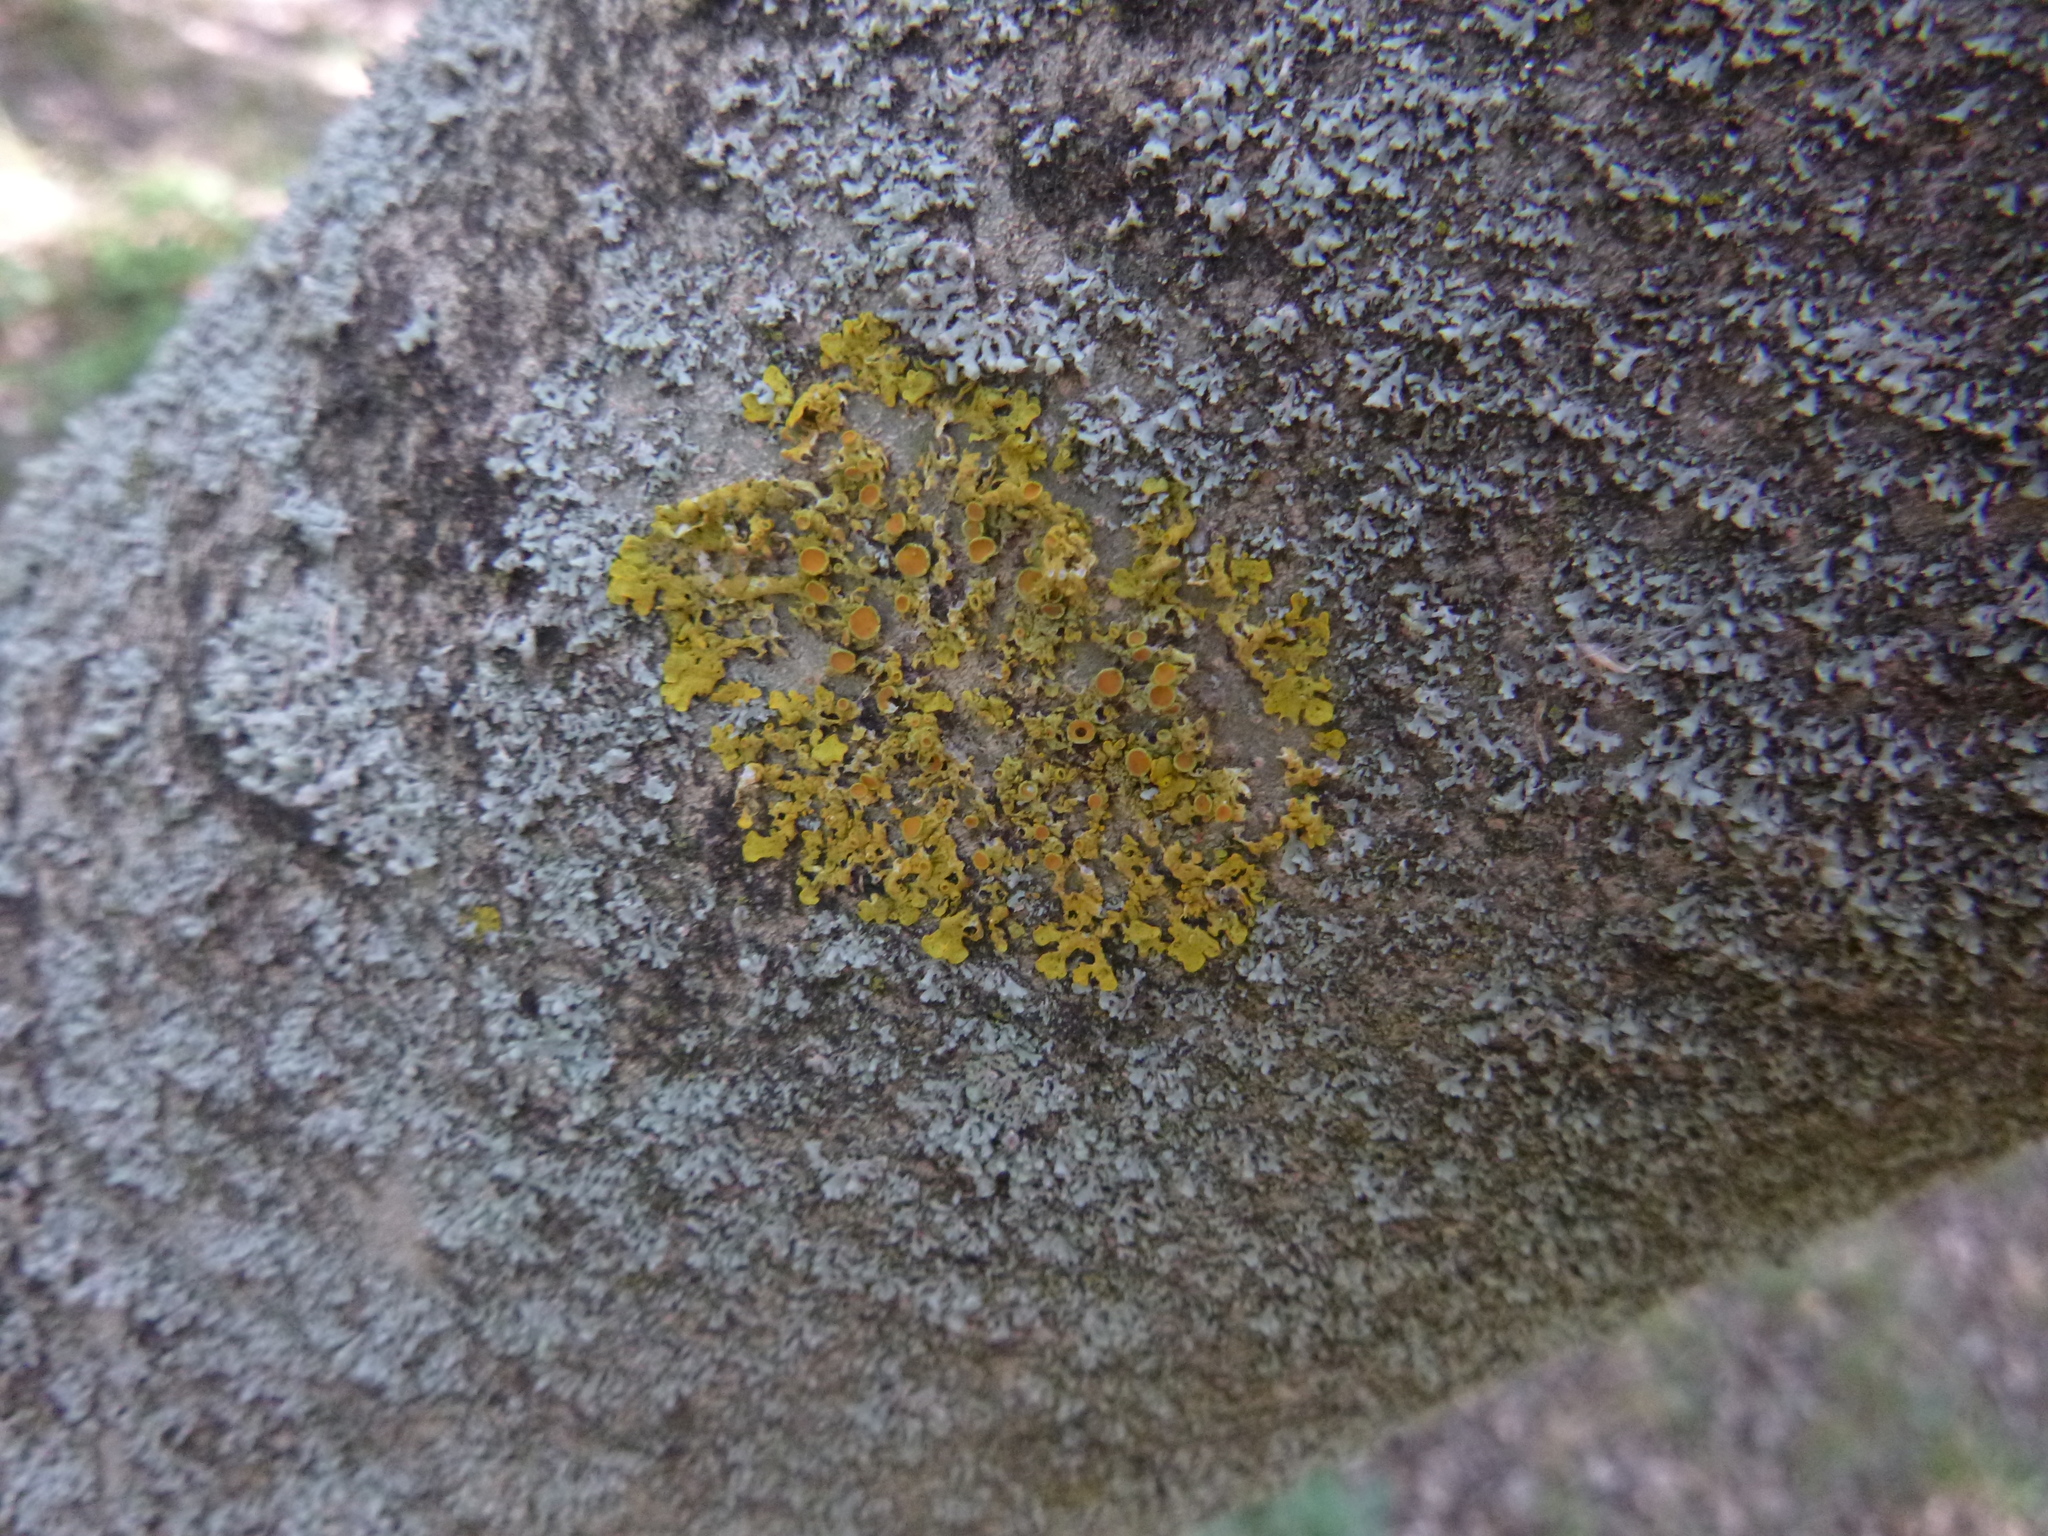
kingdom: Fungi
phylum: Ascomycota
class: Lecanoromycetes
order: Teloschistales
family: Teloschistaceae
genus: Xanthoria
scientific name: Xanthoria parietina
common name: Common orange lichen
